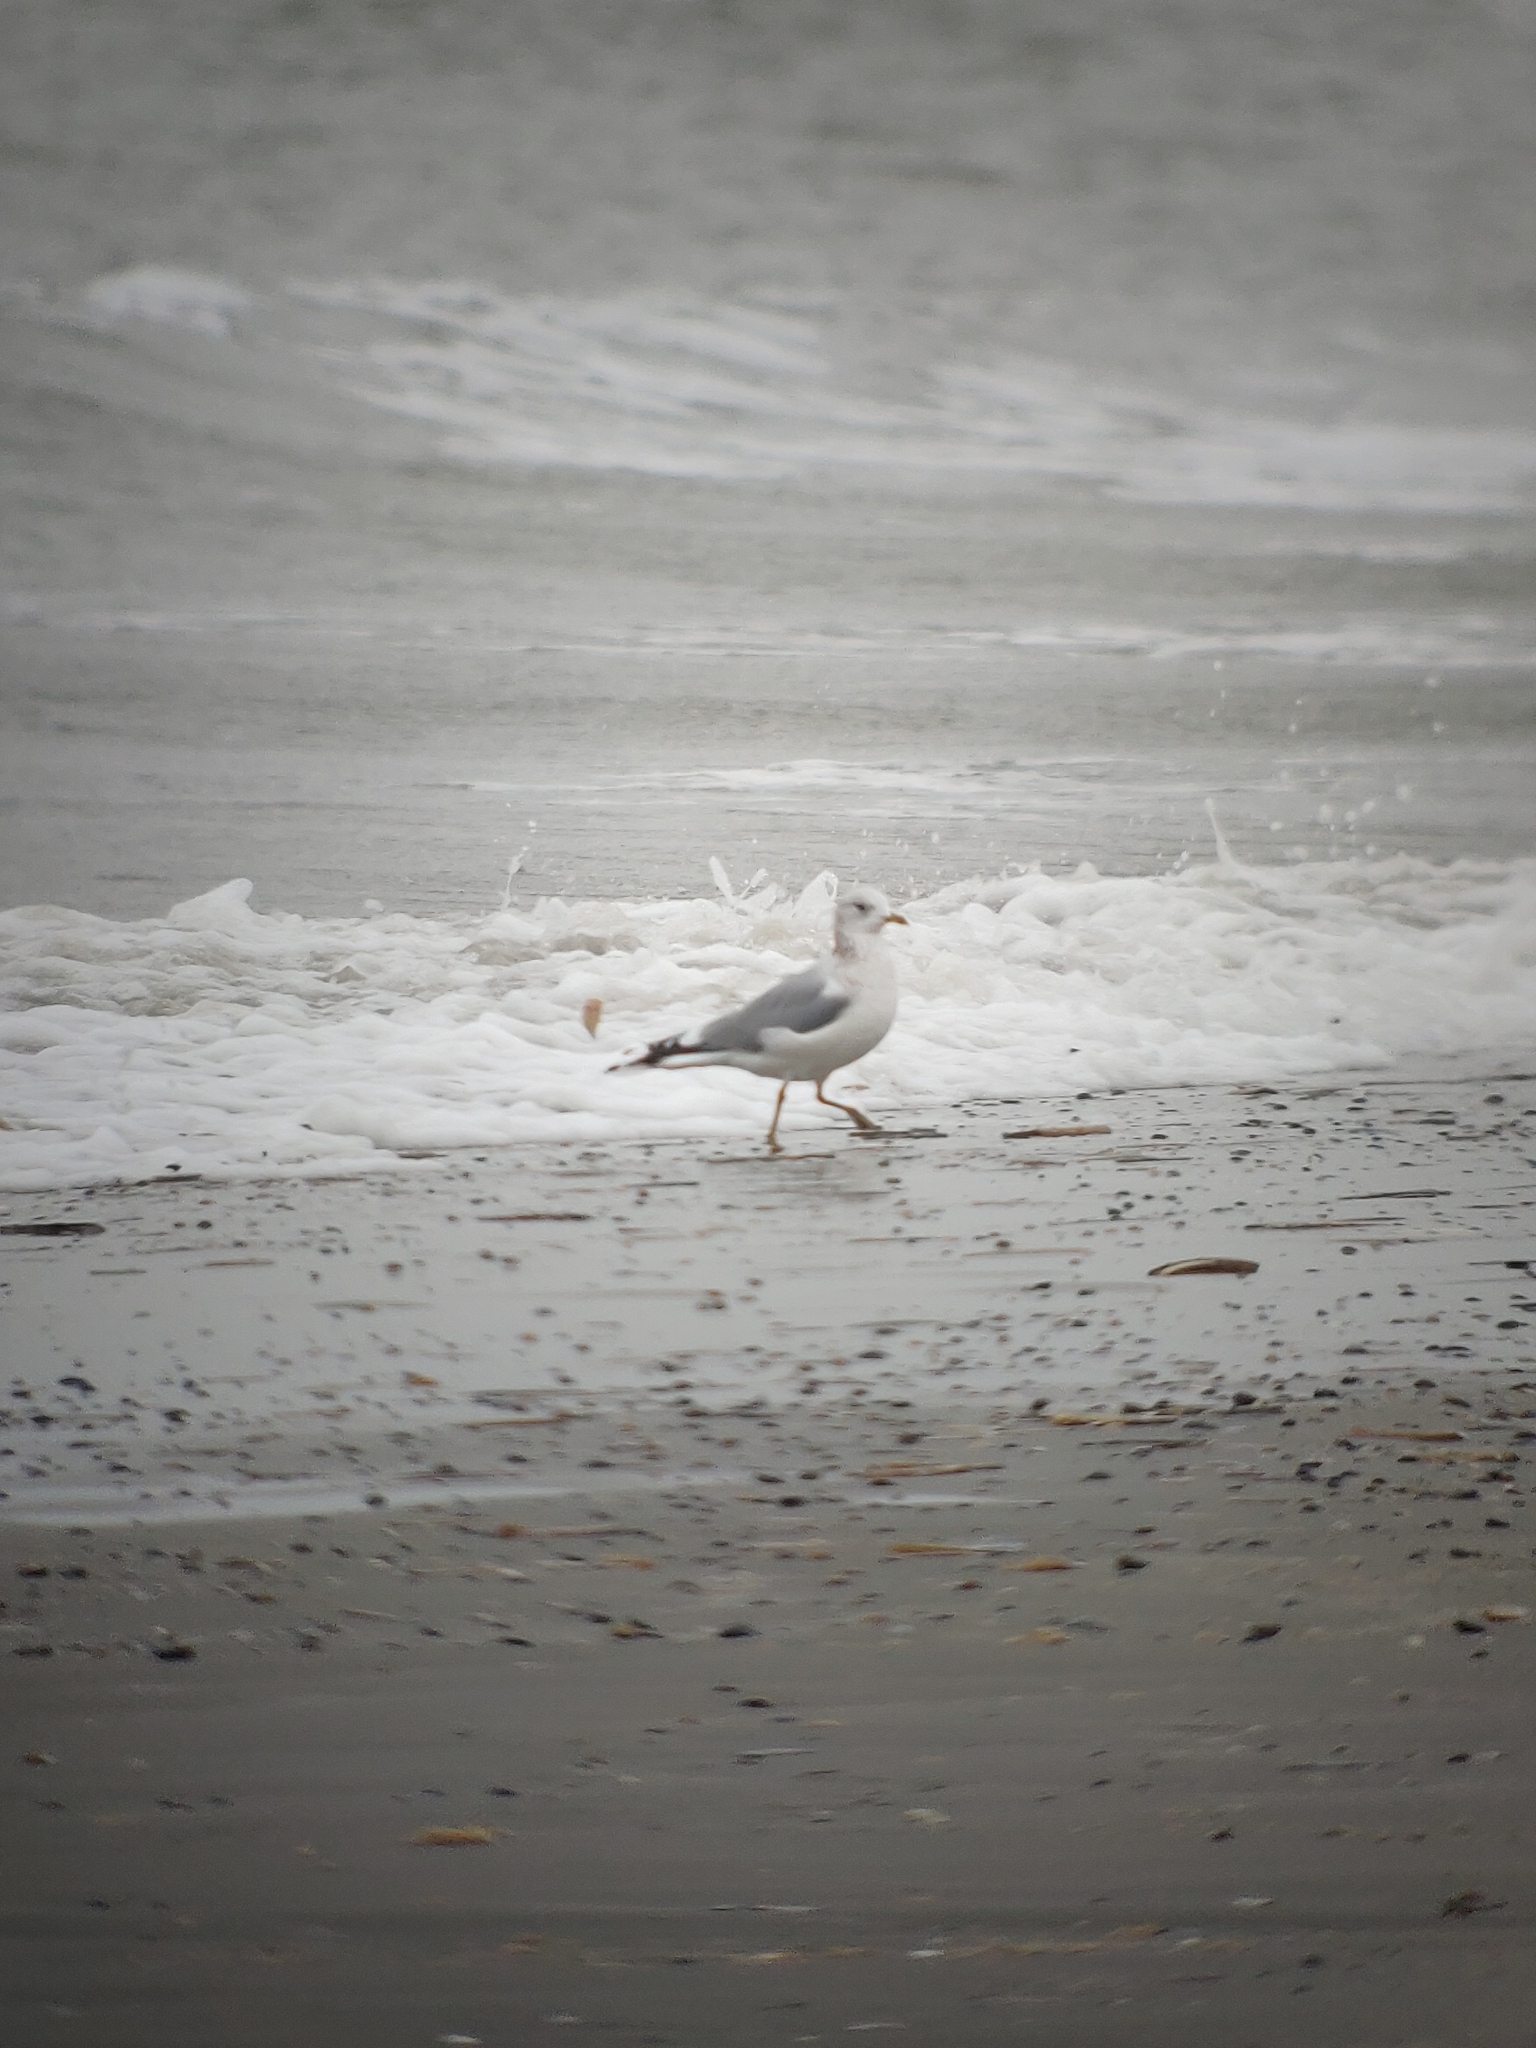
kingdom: Animalia
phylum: Chordata
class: Aves
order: Charadriiformes
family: Laridae
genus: Larus
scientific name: Larus canus
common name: Mew gull
